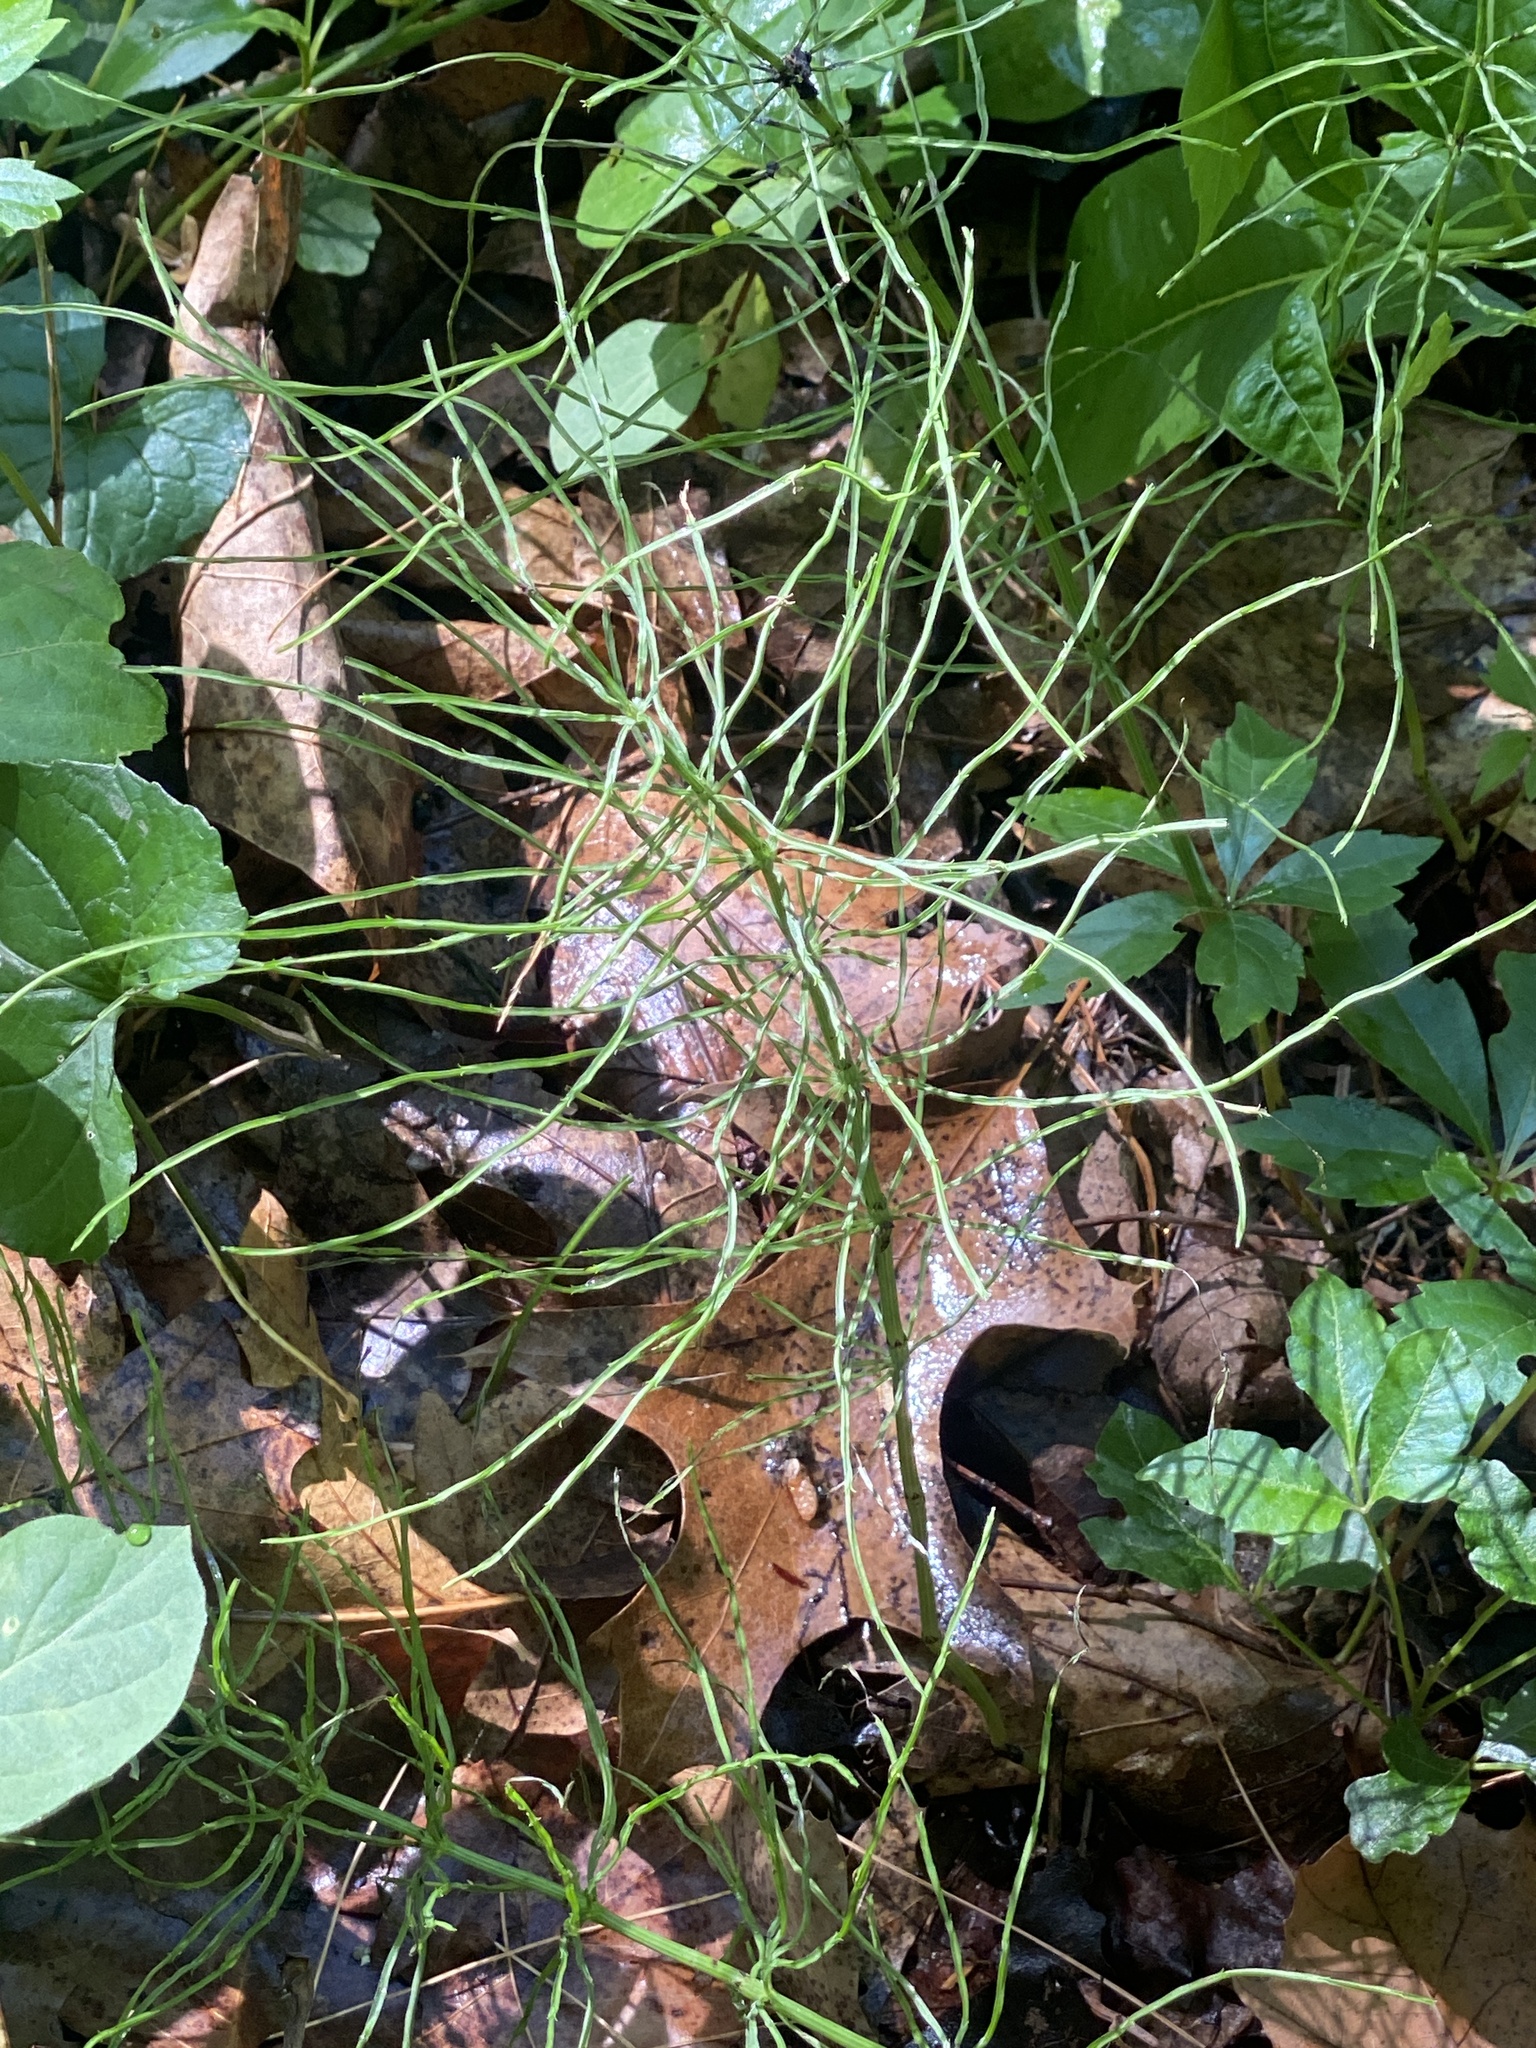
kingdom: Plantae
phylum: Tracheophyta
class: Polypodiopsida
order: Equisetales
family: Equisetaceae
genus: Equisetum
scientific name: Equisetum arvense
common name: Field horsetail
